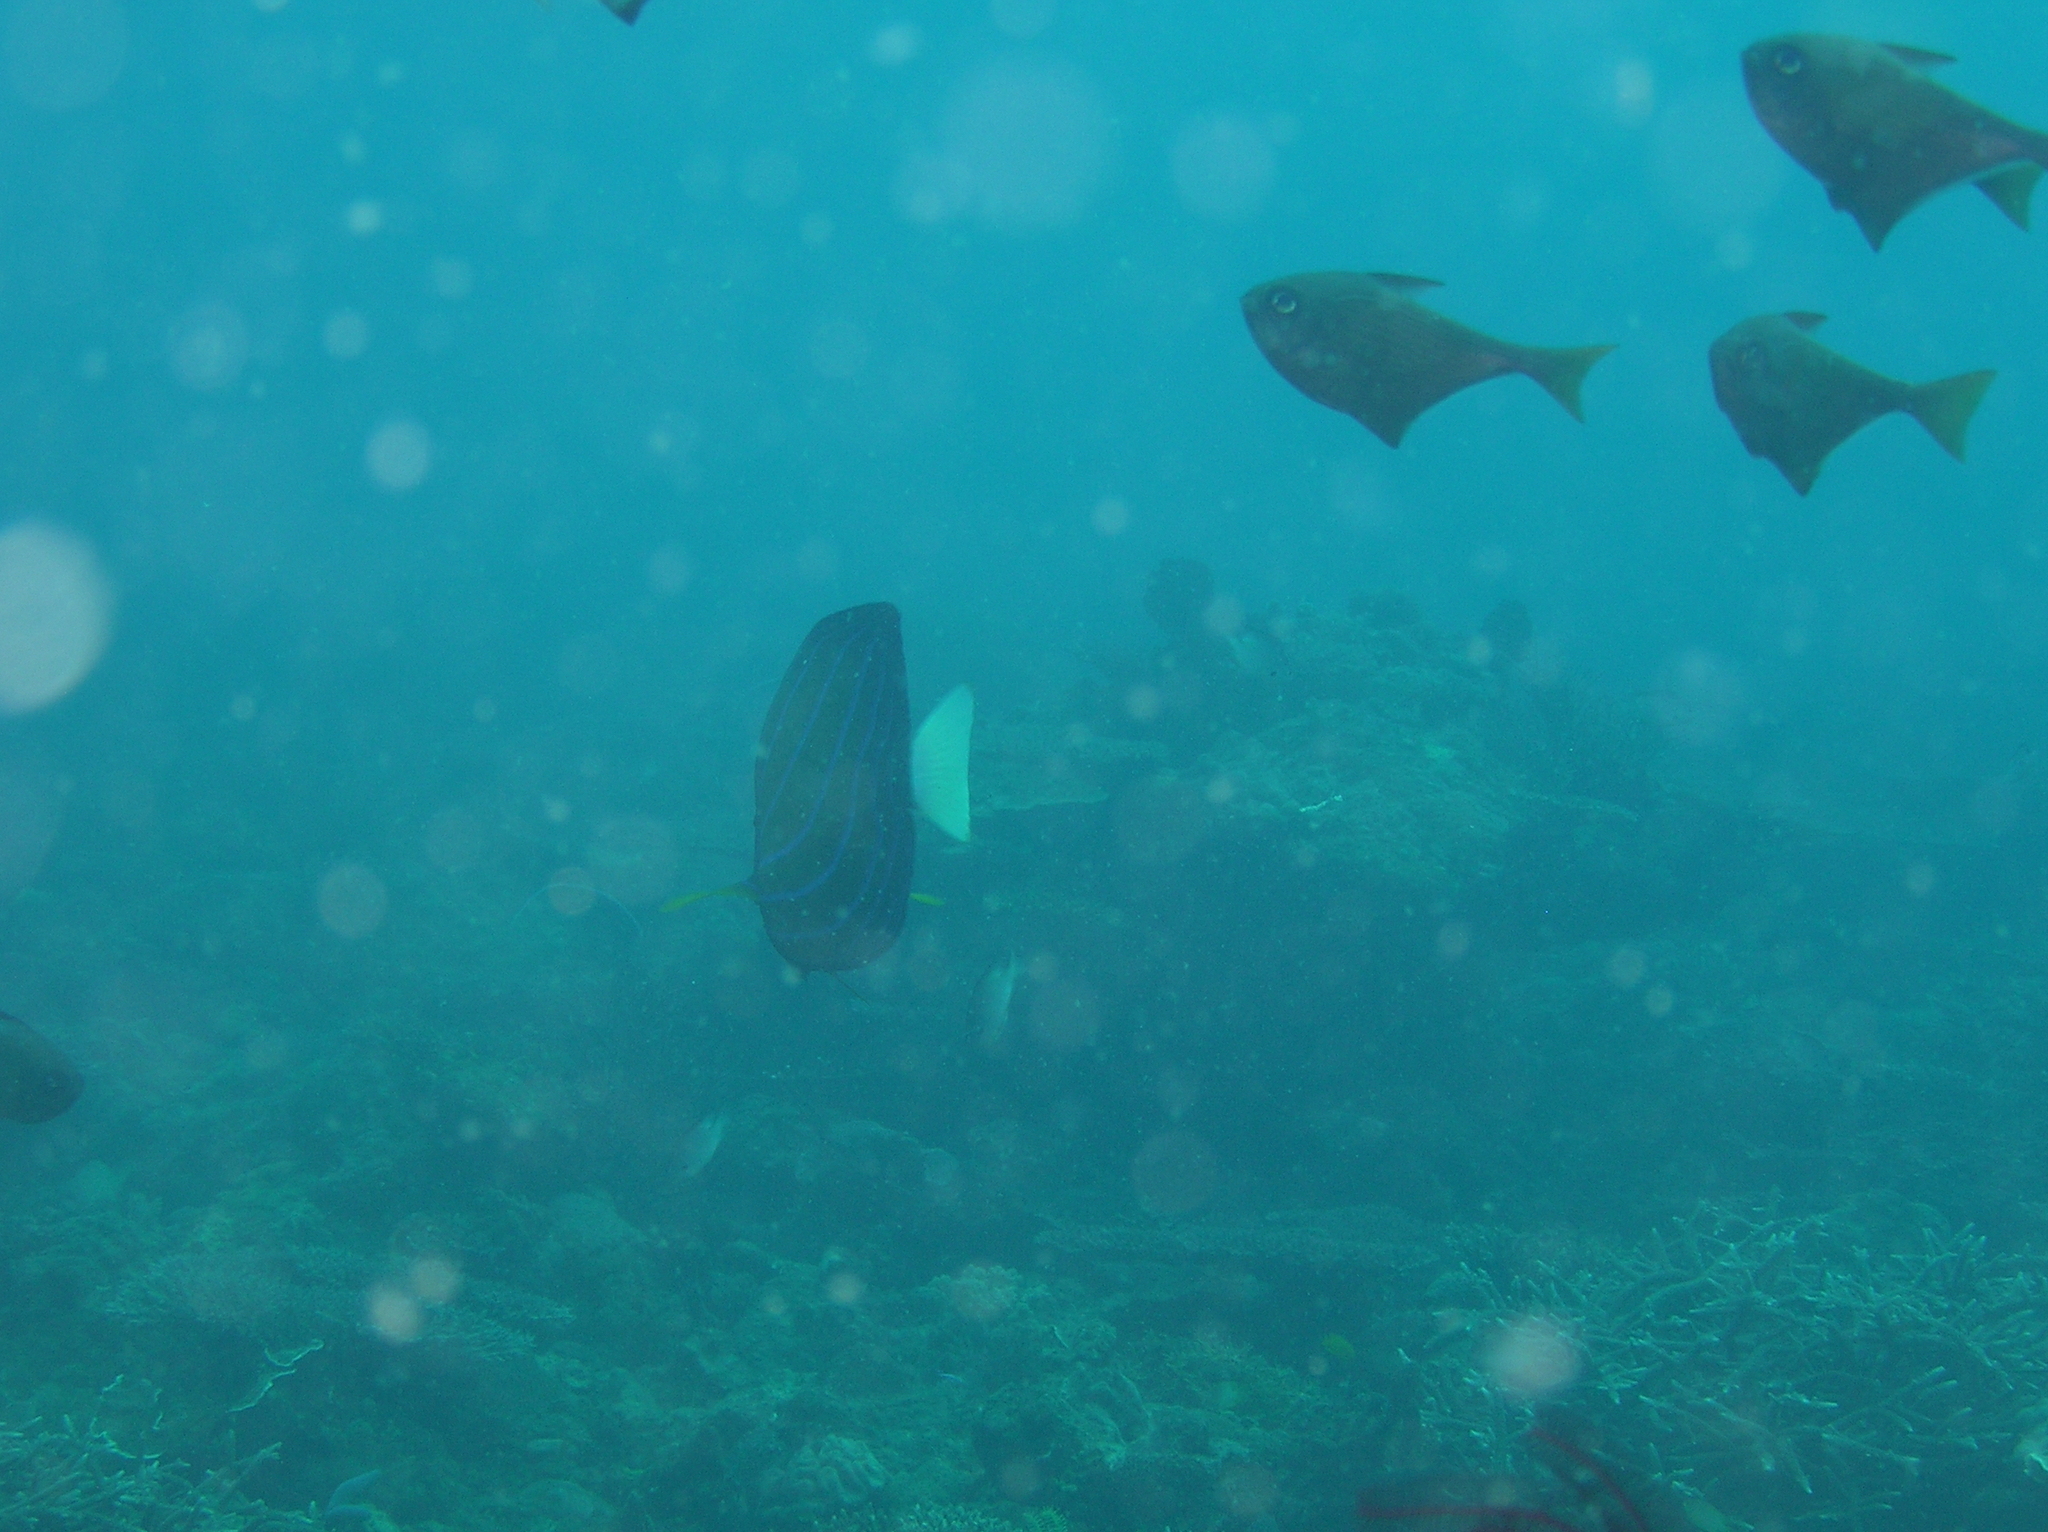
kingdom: Animalia
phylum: Chordata
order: Perciformes
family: Pomacanthidae
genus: Pomacanthus
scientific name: Pomacanthus annularis
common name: Bluering angelfish
